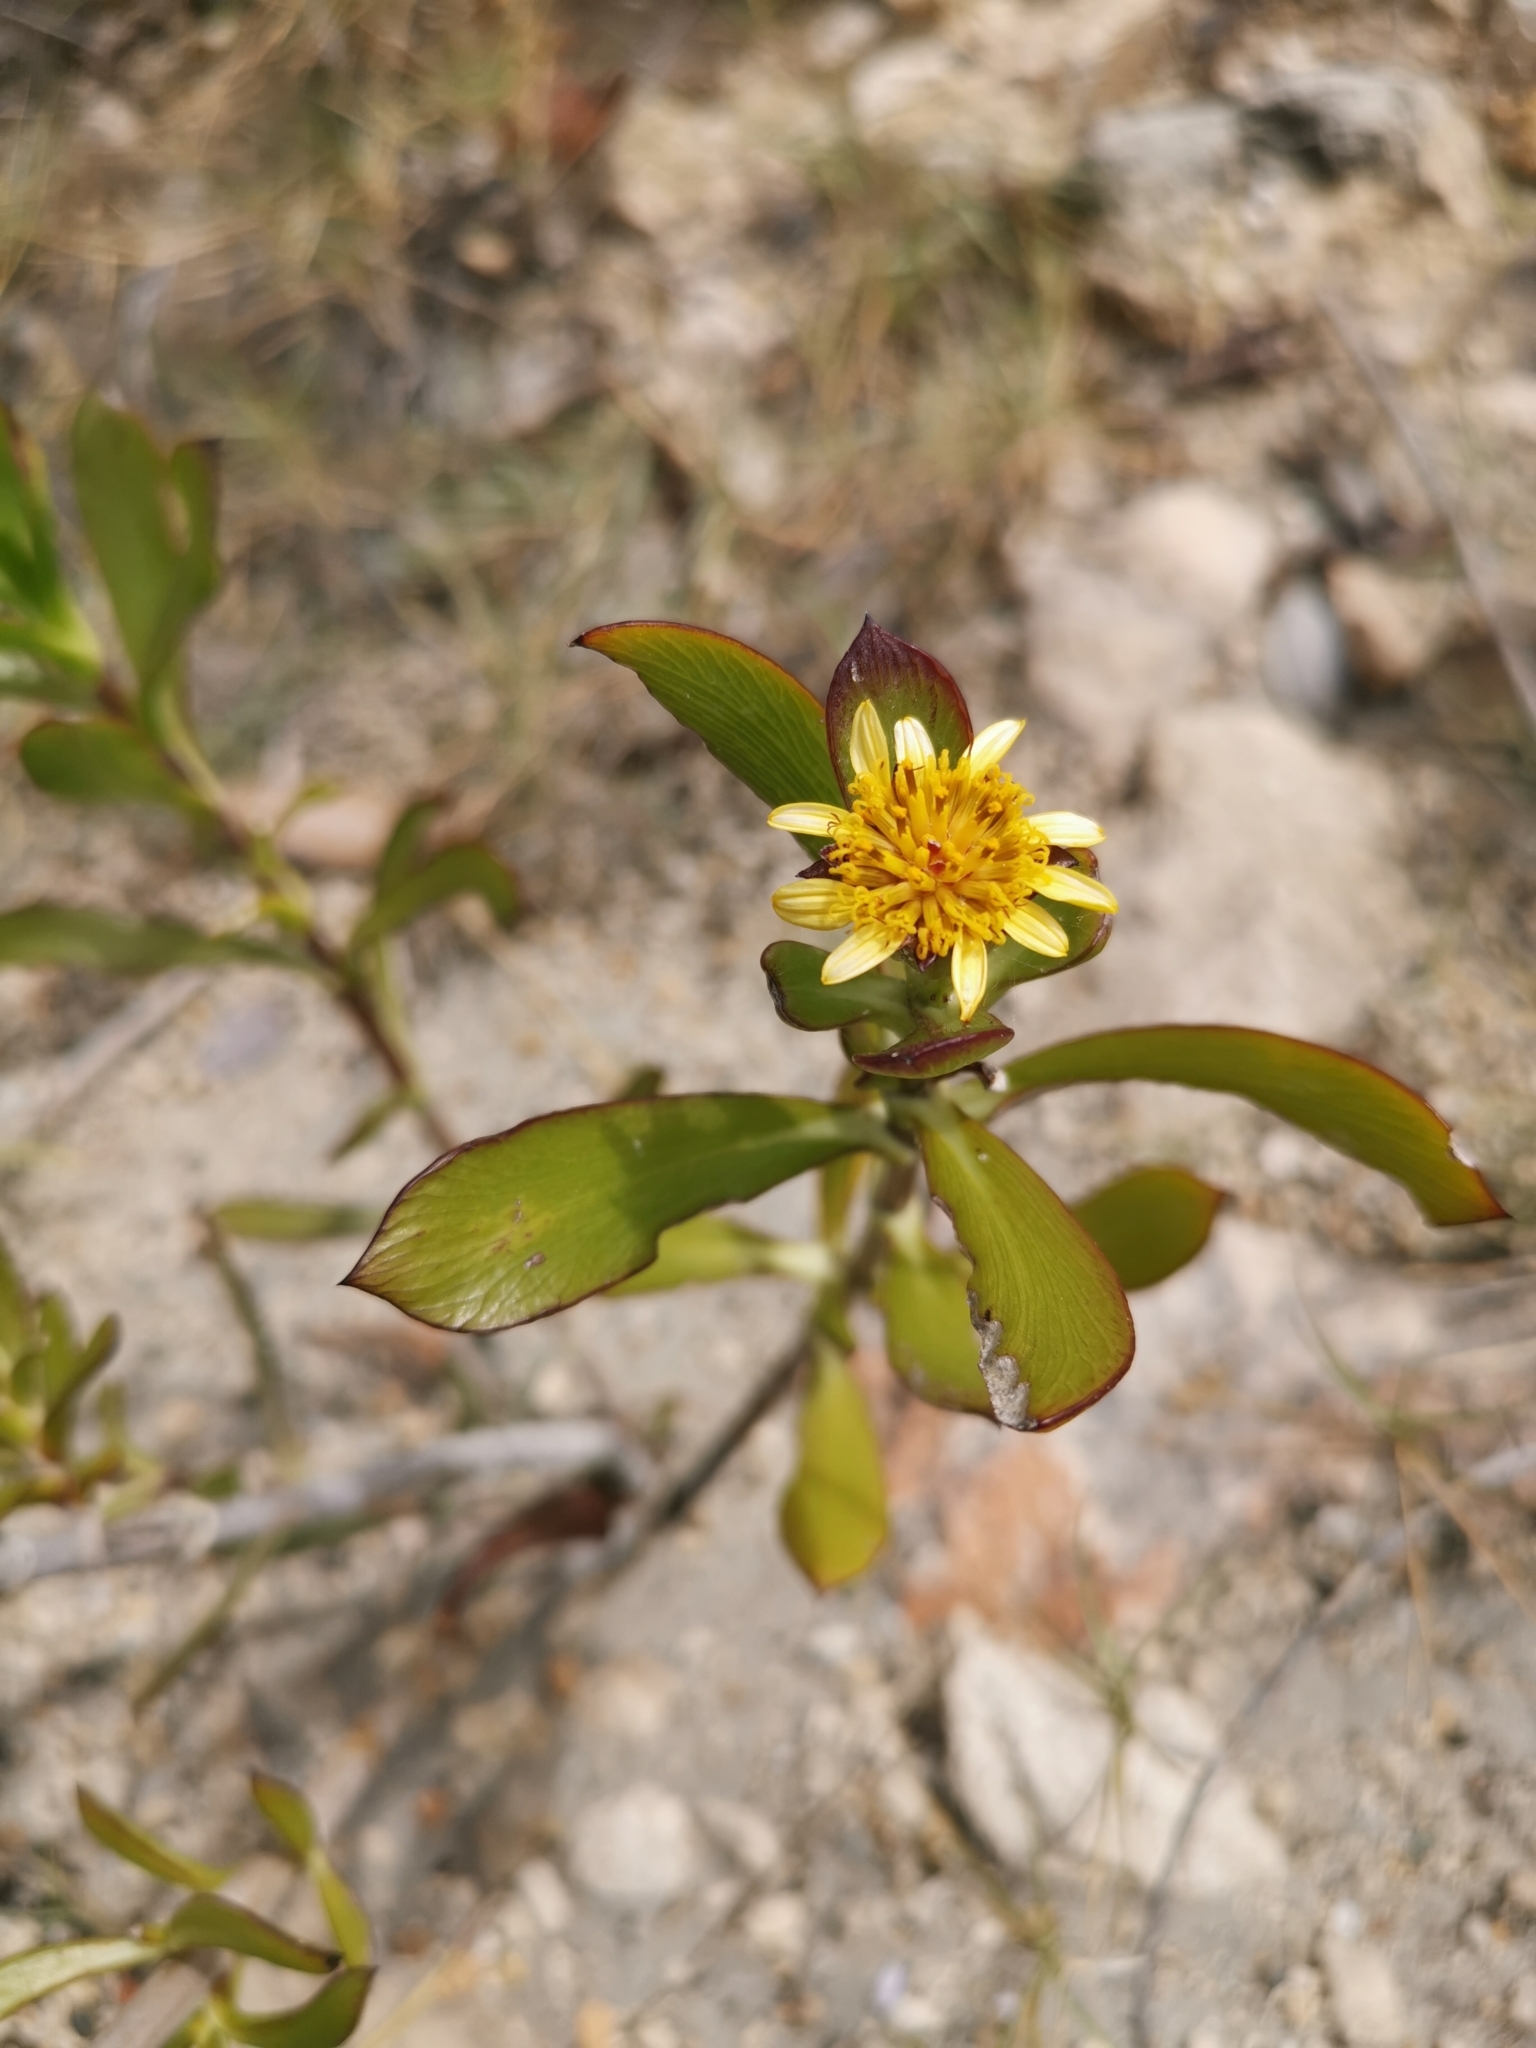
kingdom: Plantae
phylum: Tracheophyta
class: Magnoliopsida
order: Asterales
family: Asteraceae
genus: Borrichia
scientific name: Borrichia arborescens
